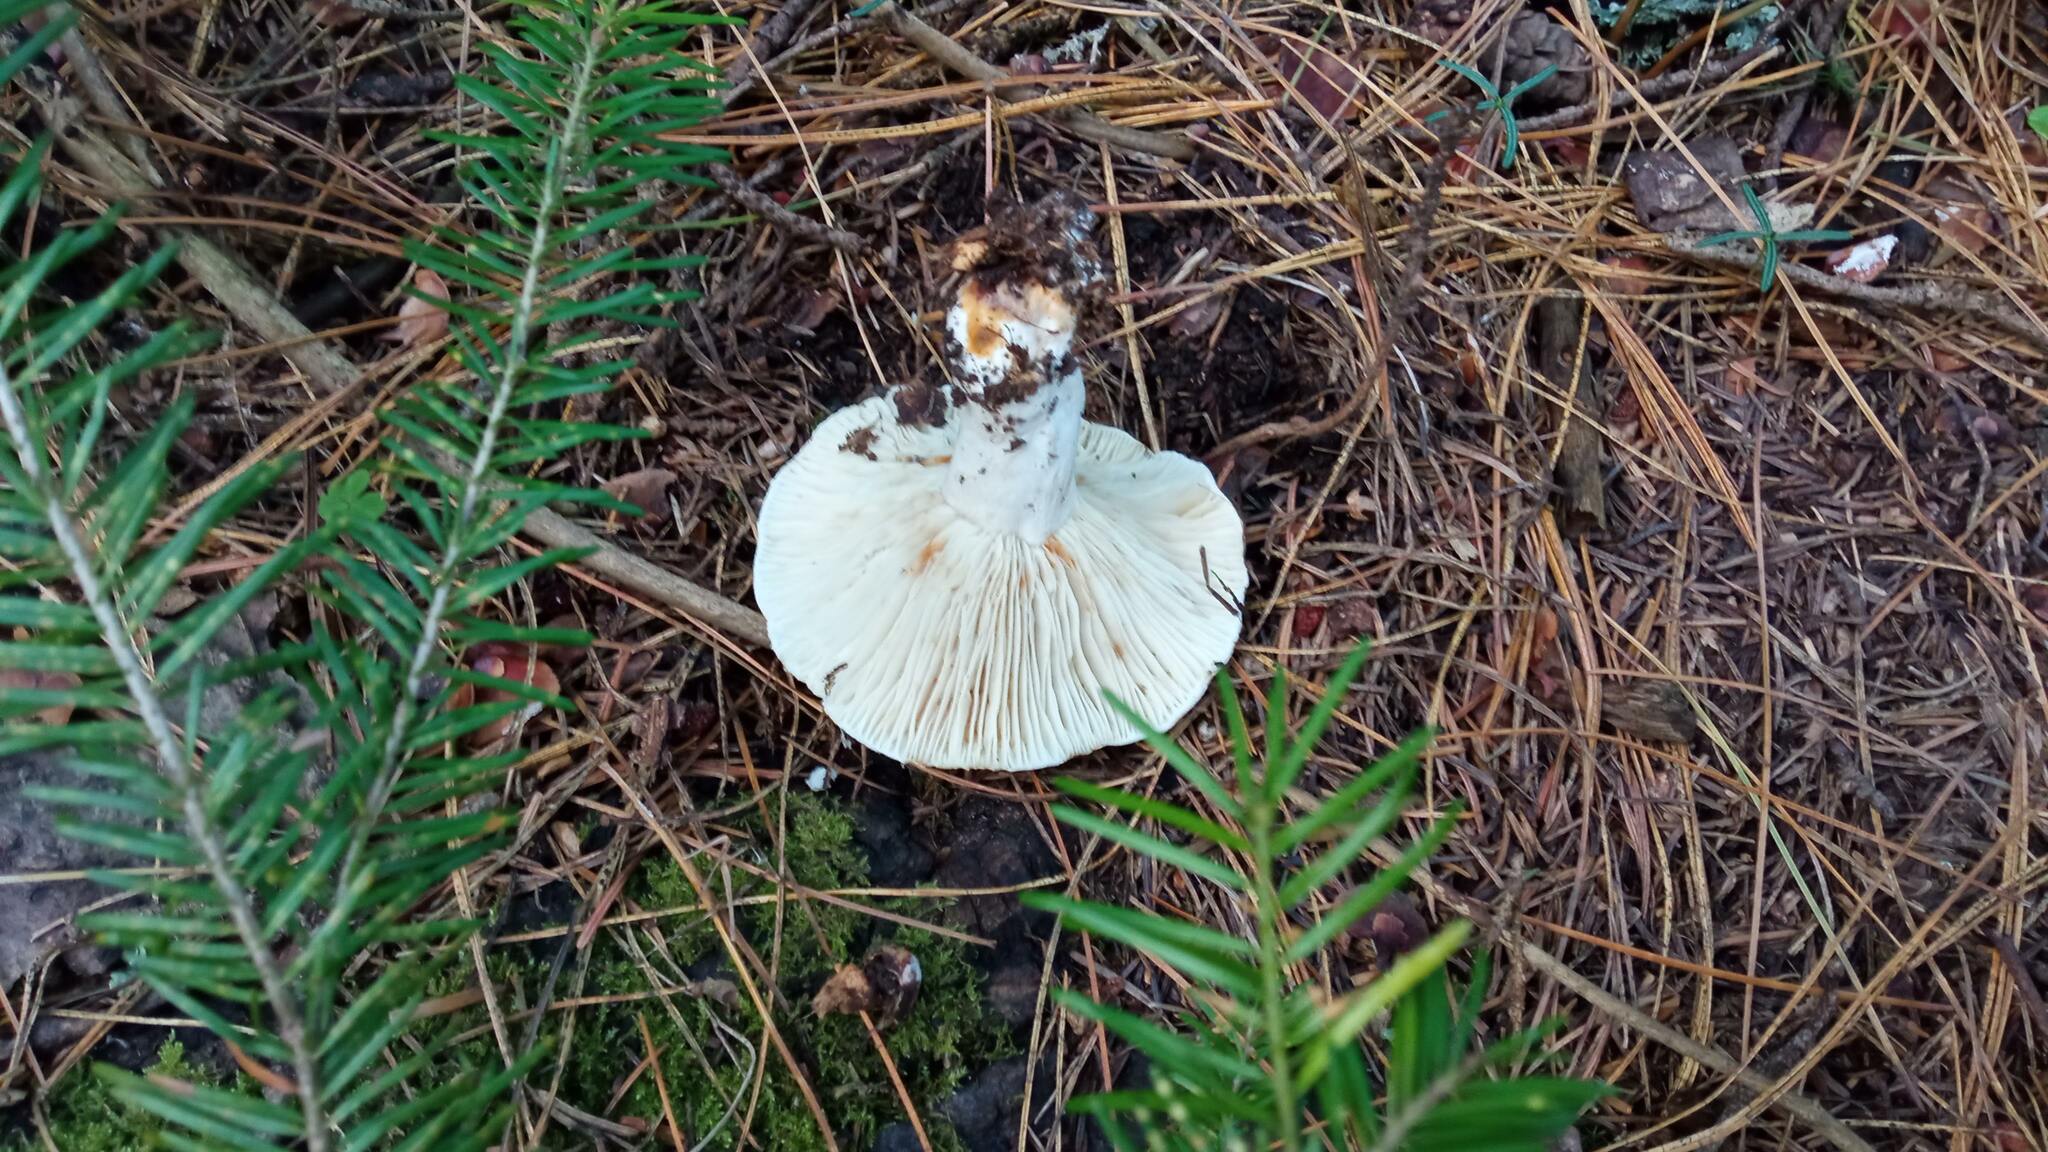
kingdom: Fungi
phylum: Basidiomycota
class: Agaricomycetes
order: Russulales
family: Russulaceae
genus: Russula
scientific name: Russula delica
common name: Milk white brittlegill
